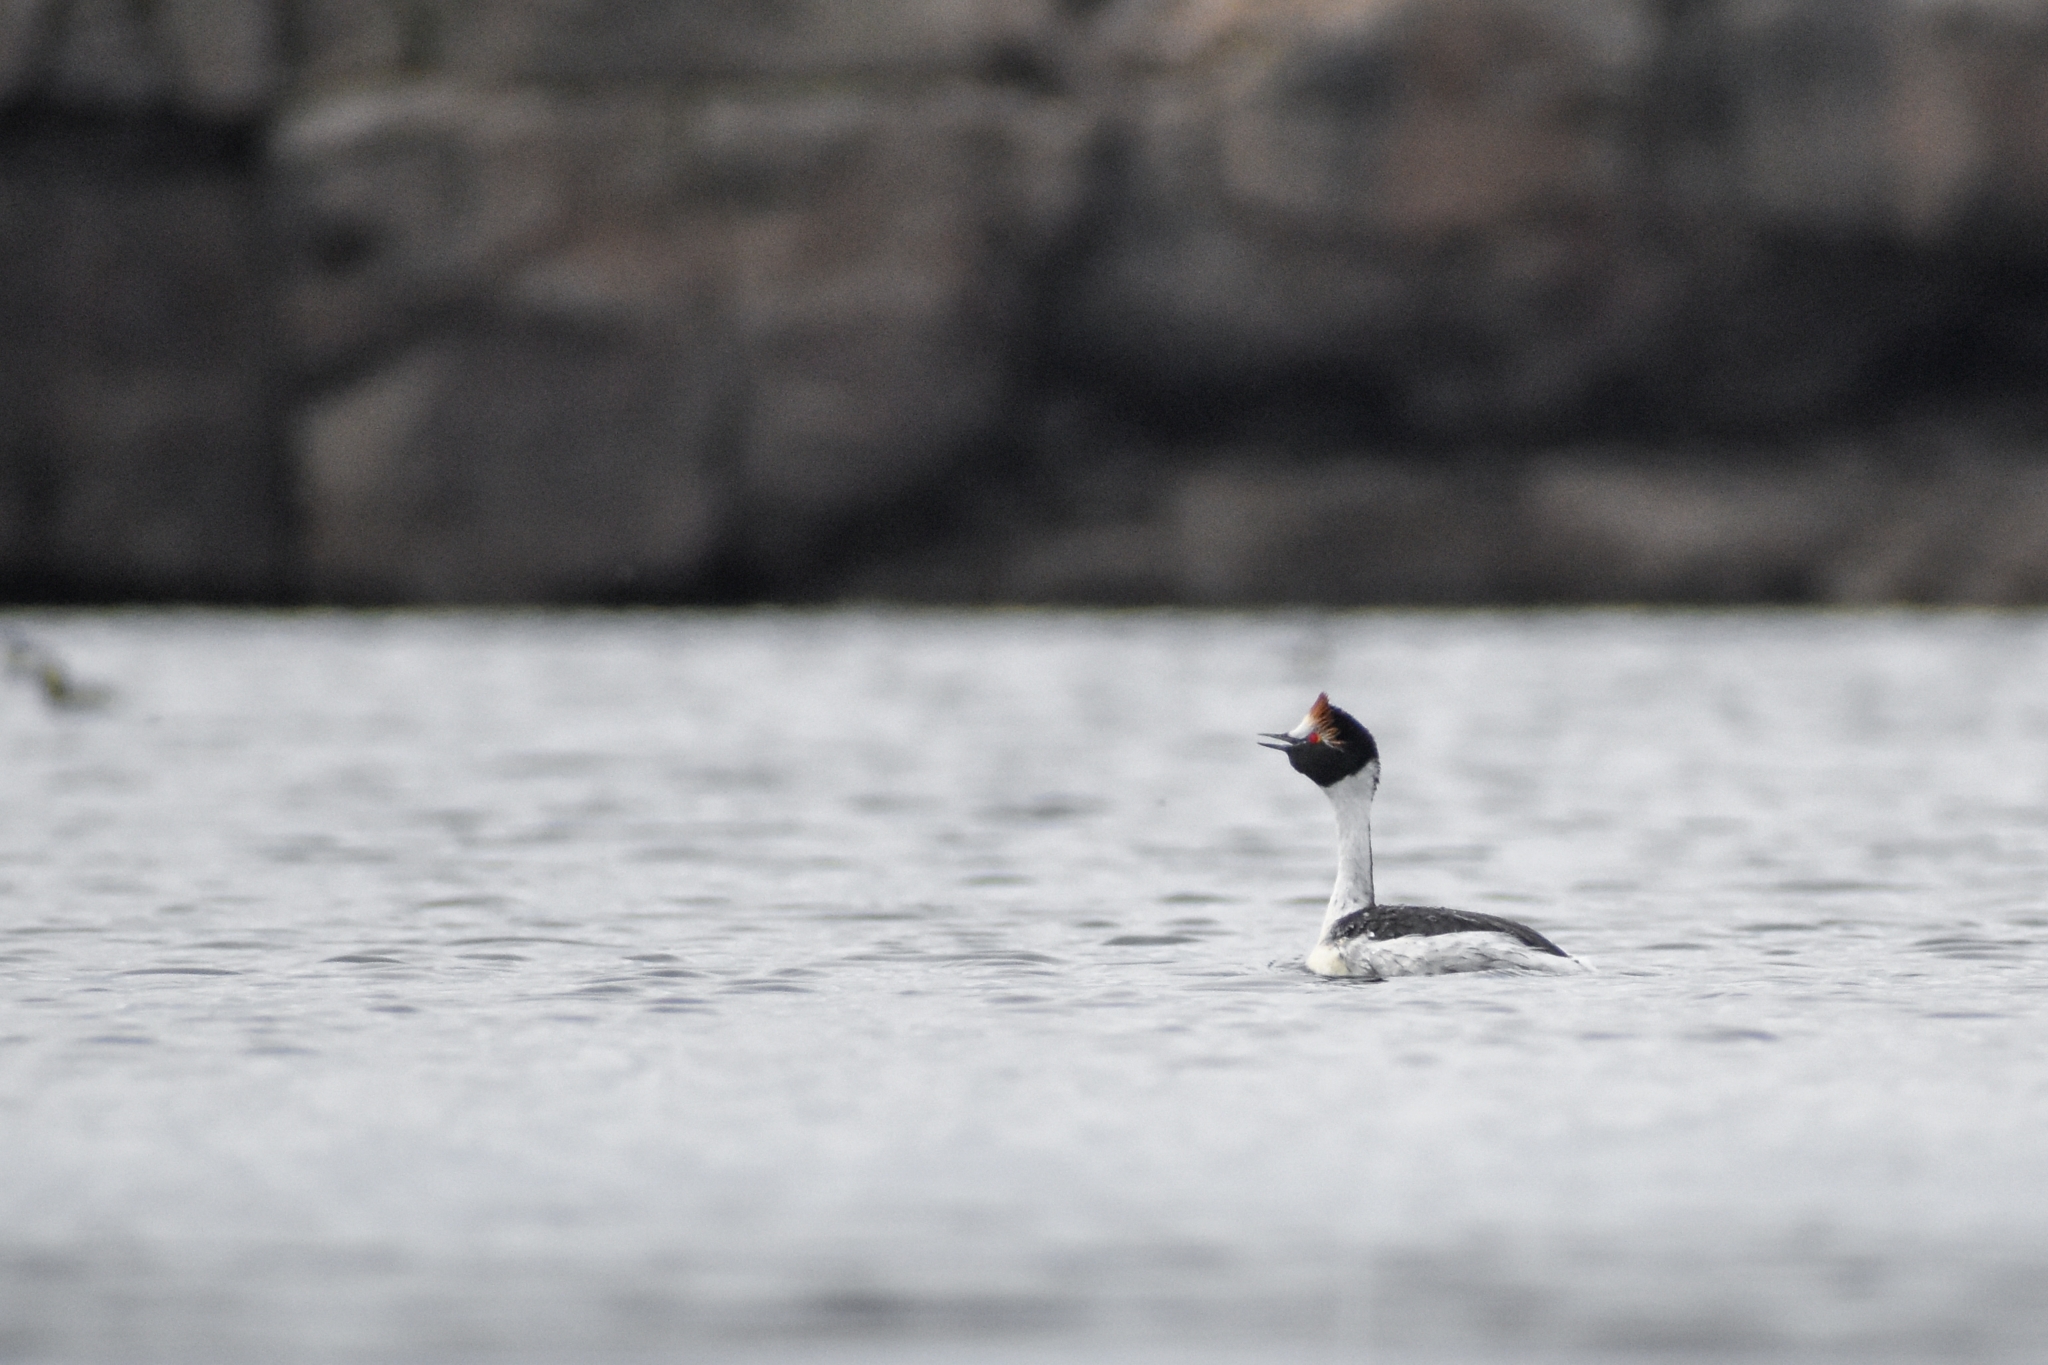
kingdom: Animalia
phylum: Chordata
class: Aves
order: Podicipediformes
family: Podicipedidae
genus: Podiceps
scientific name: Podiceps gallardoi
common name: Hooded grebe
